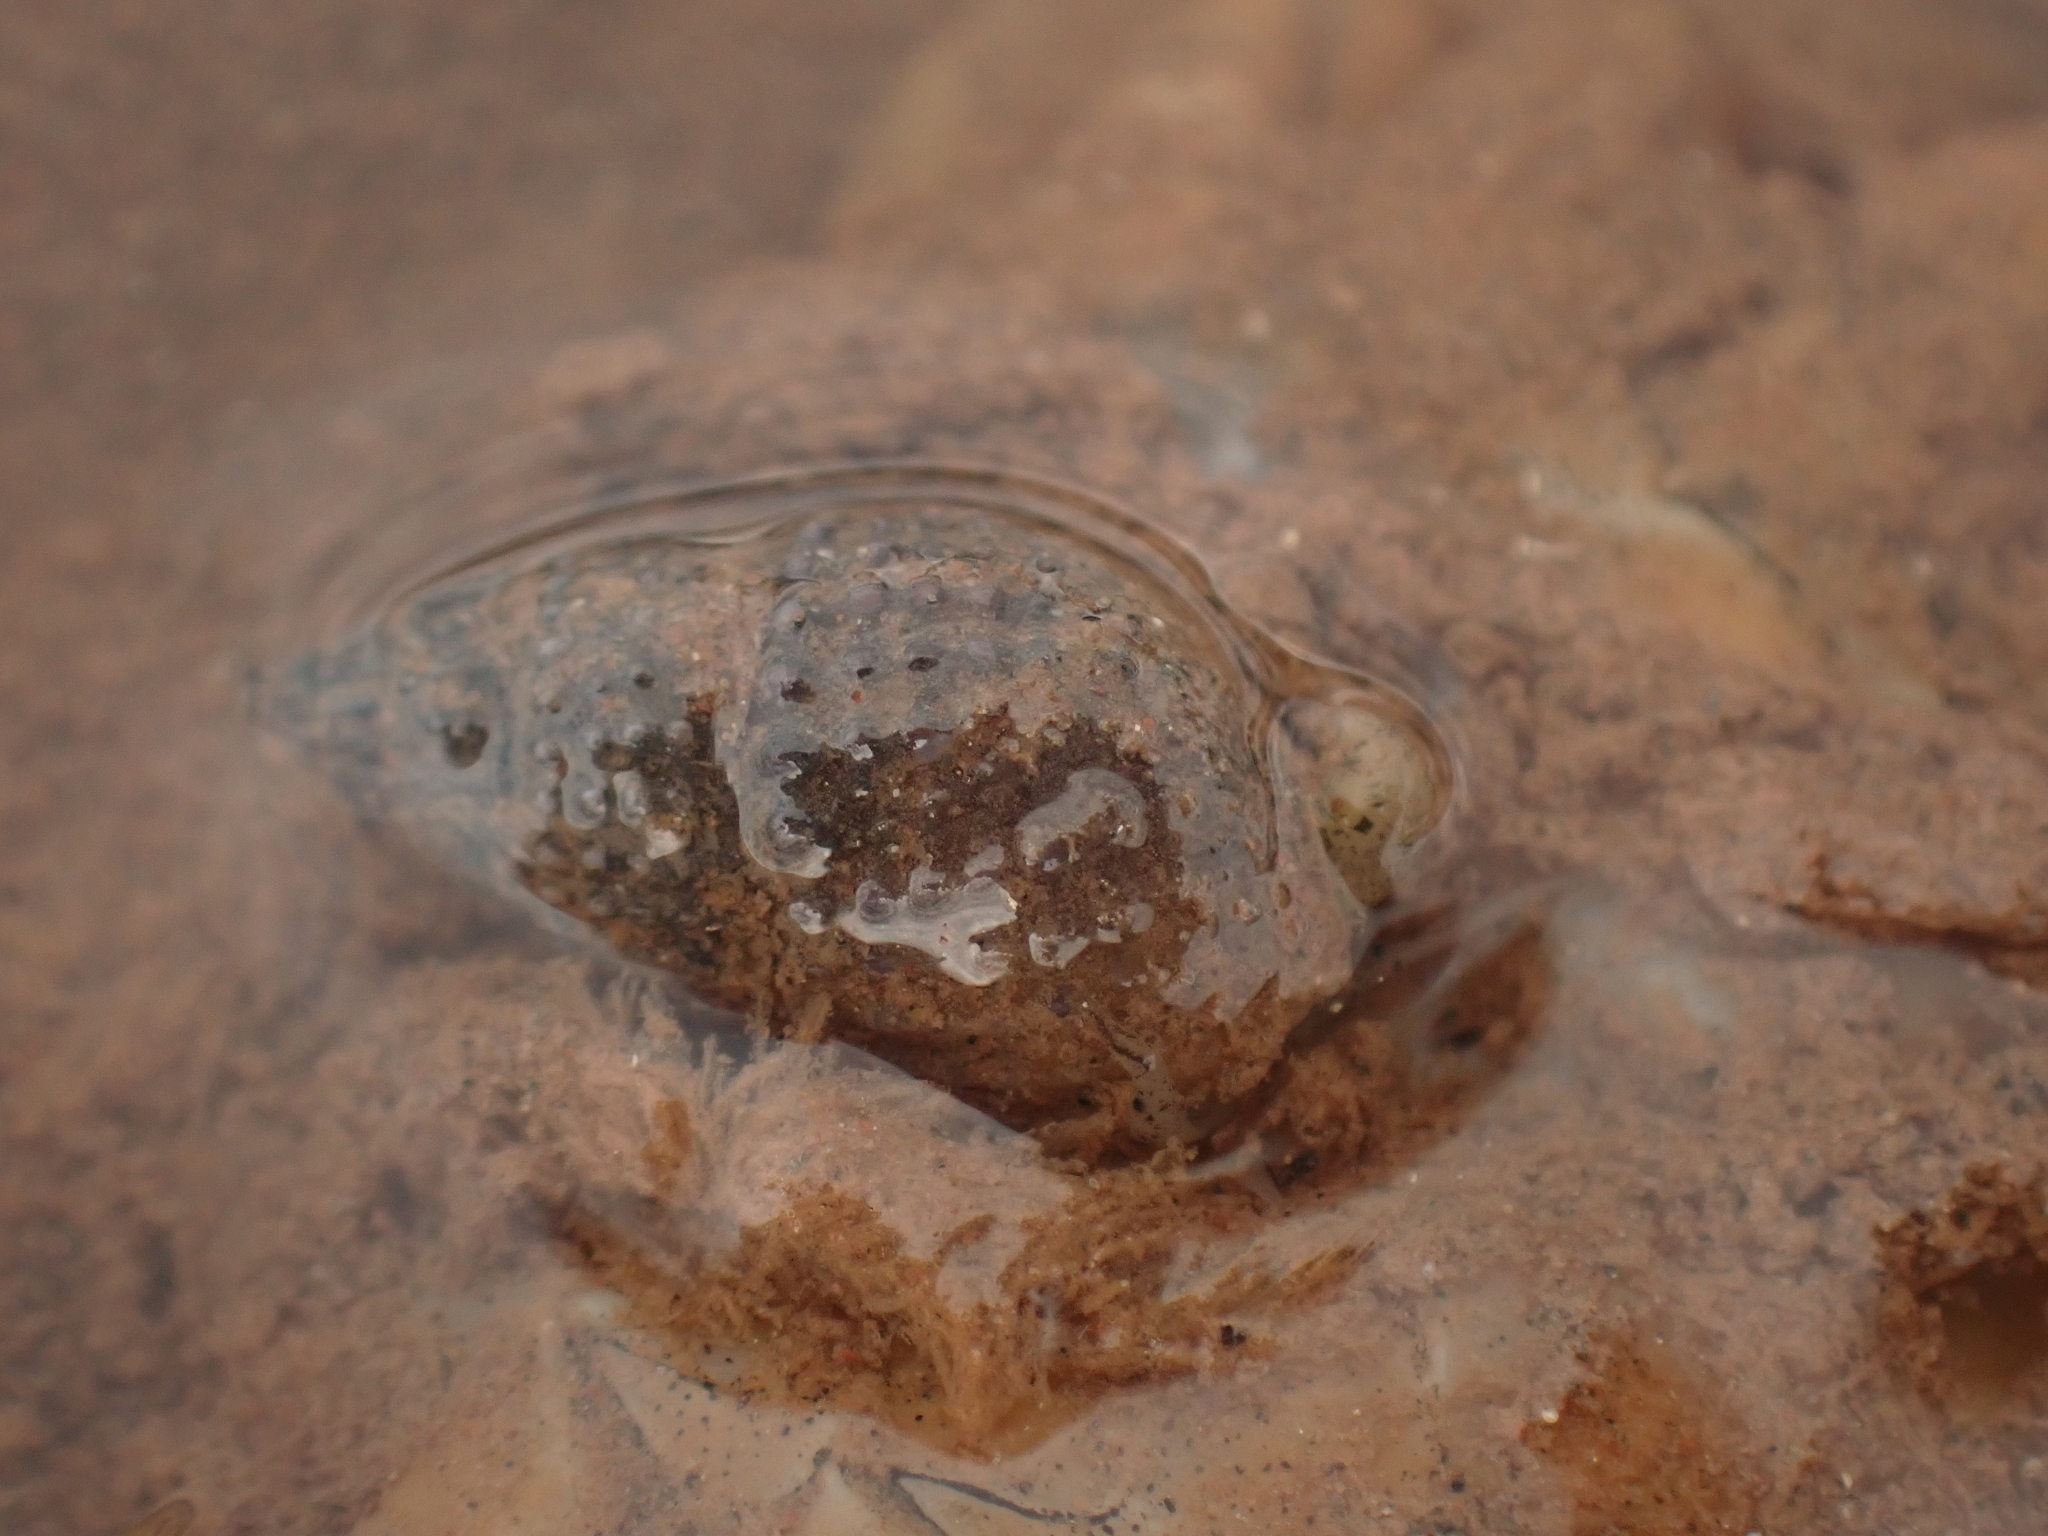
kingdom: Animalia
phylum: Mollusca
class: Gastropoda
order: Neogastropoda
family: Nassariidae
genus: Ilyanassa
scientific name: Ilyanassa trivittata
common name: Three-line mudsnail
